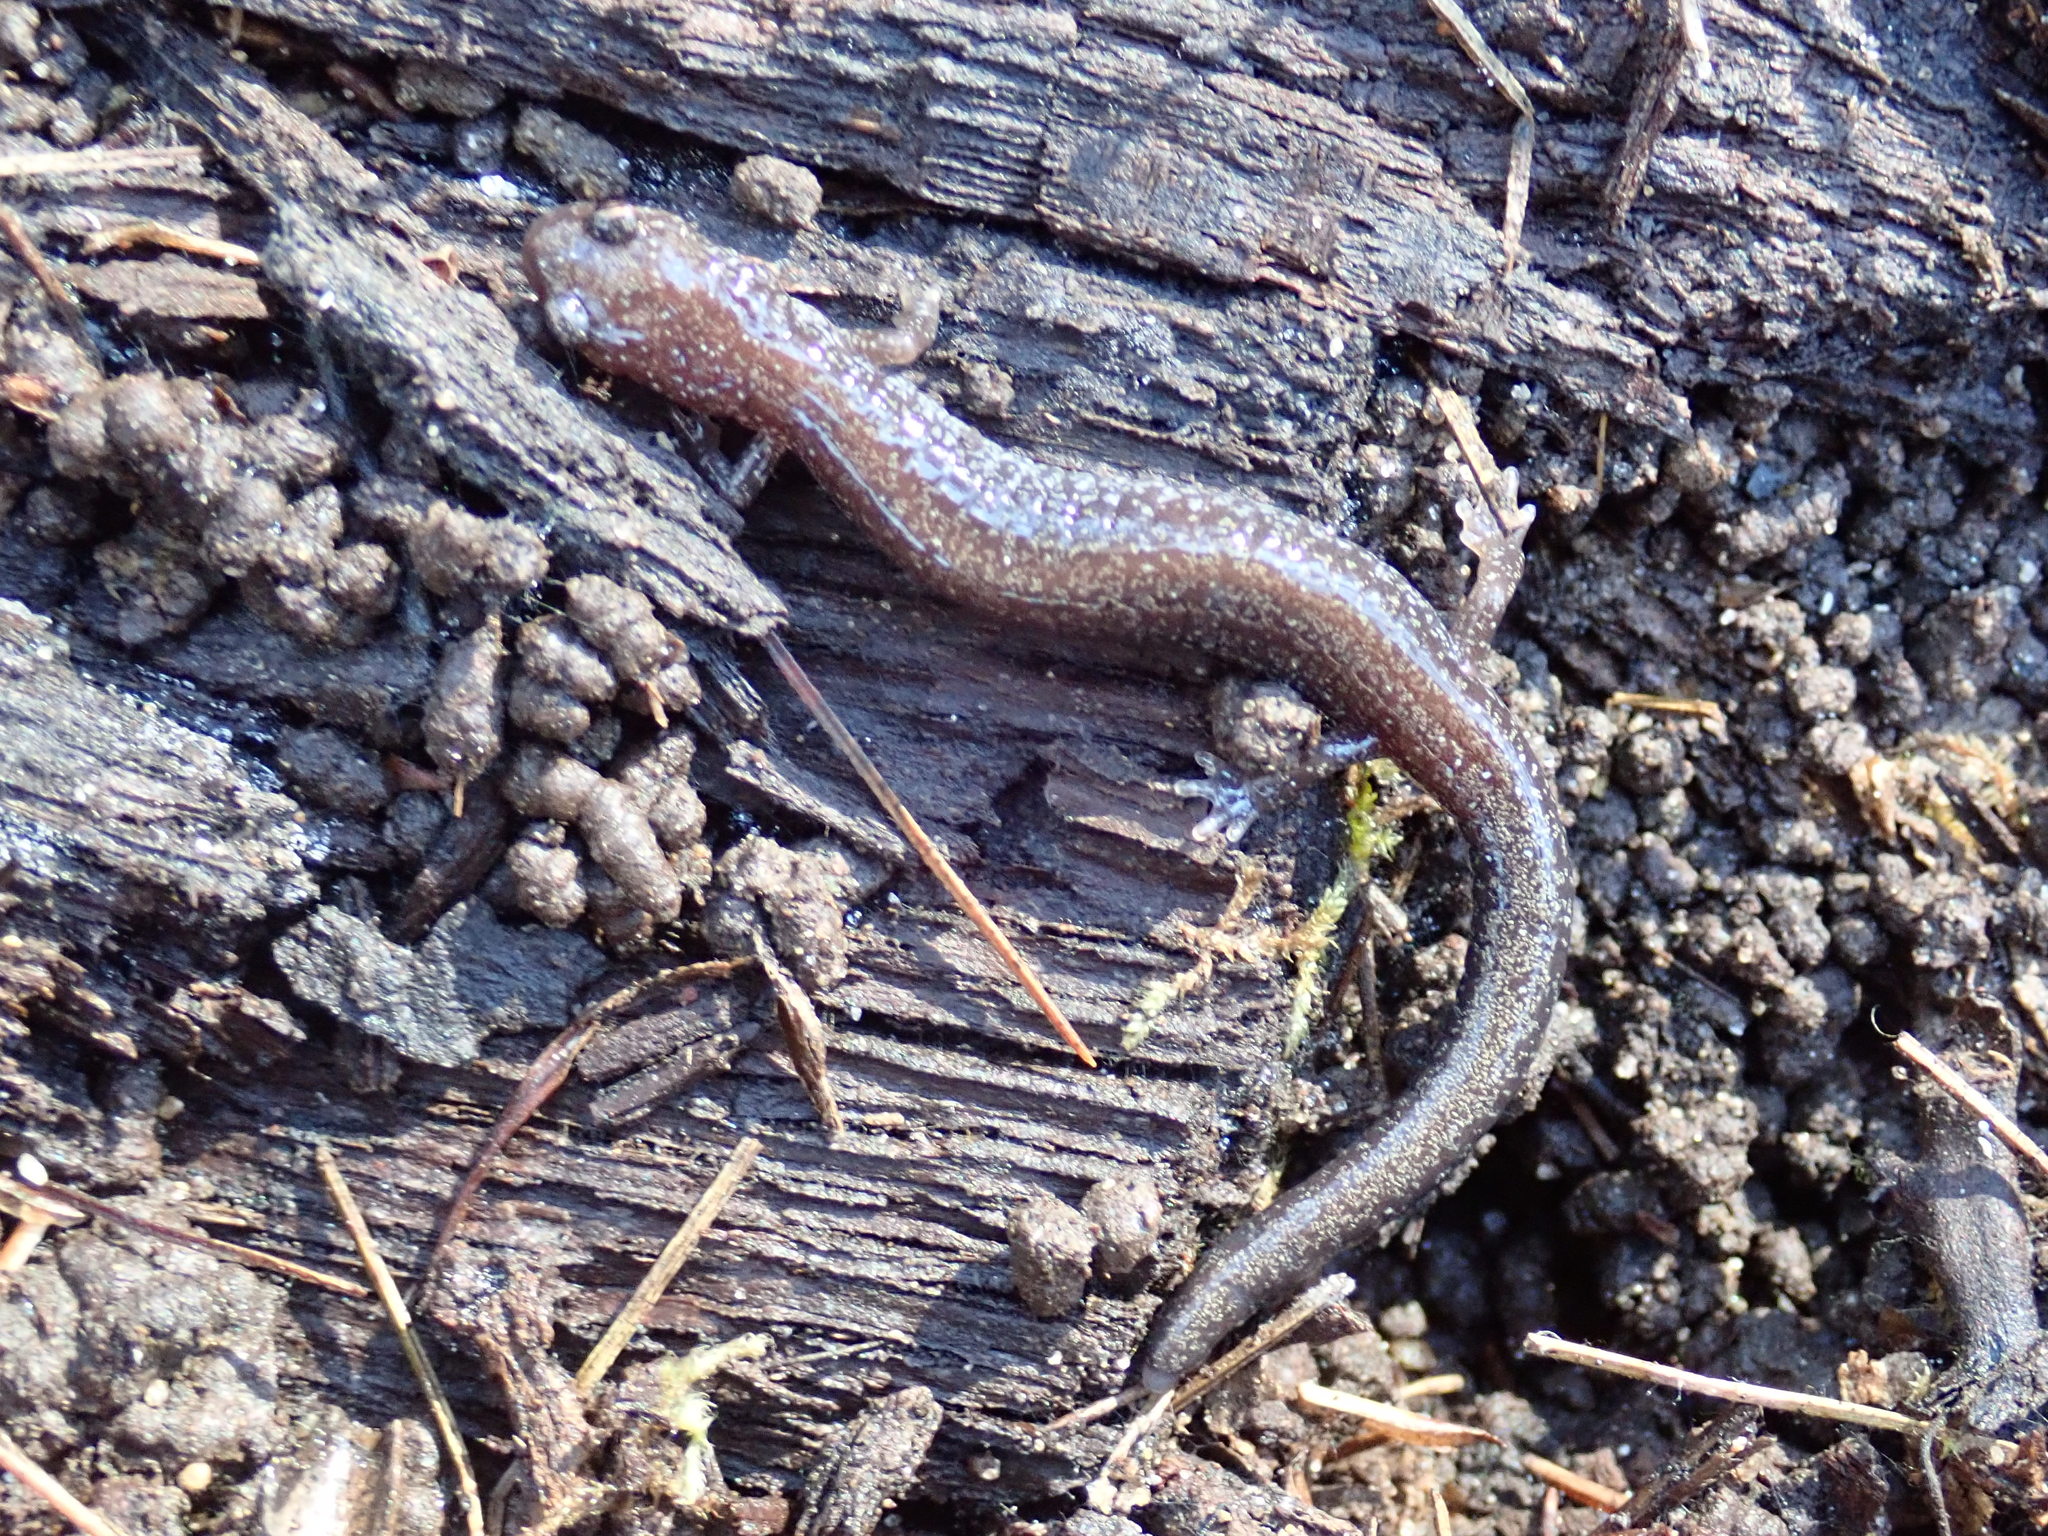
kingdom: Animalia
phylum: Chordata
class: Amphibia
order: Caudata
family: Plethodontidae
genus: Plethodon
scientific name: Plethodon cinereus
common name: Redback salamander
